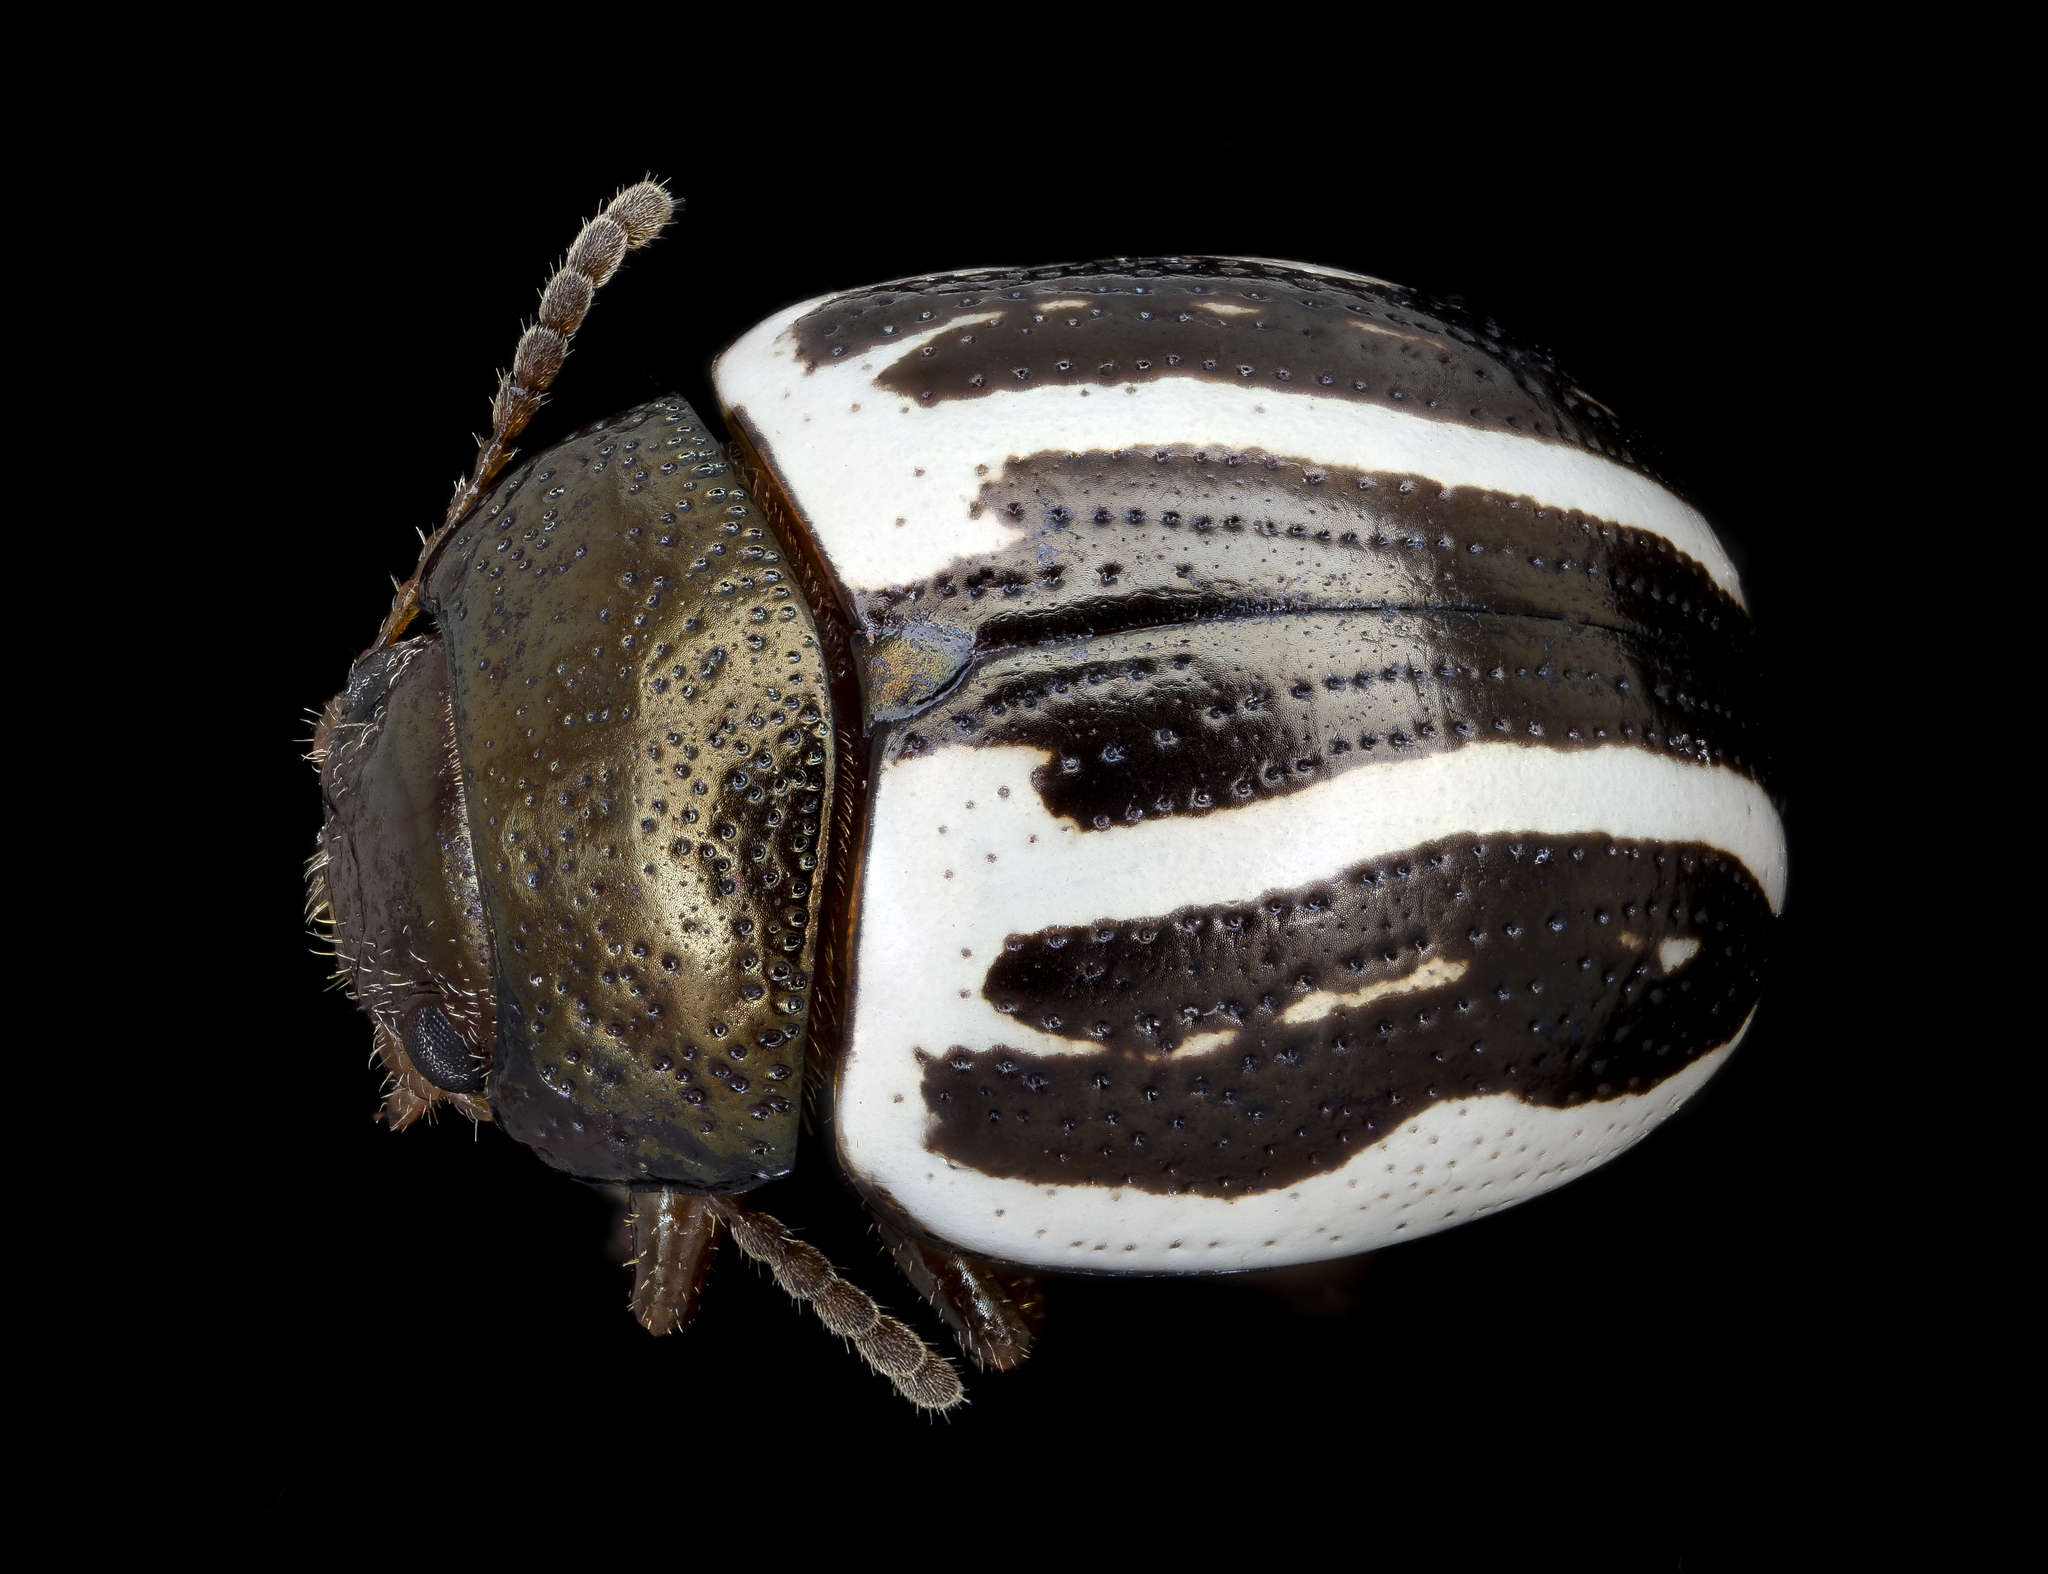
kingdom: Animalia
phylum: Arthropoda
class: Insecta
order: Coleoptera
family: Chrysomelidae
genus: Calligrapha
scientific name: Calligrapha
